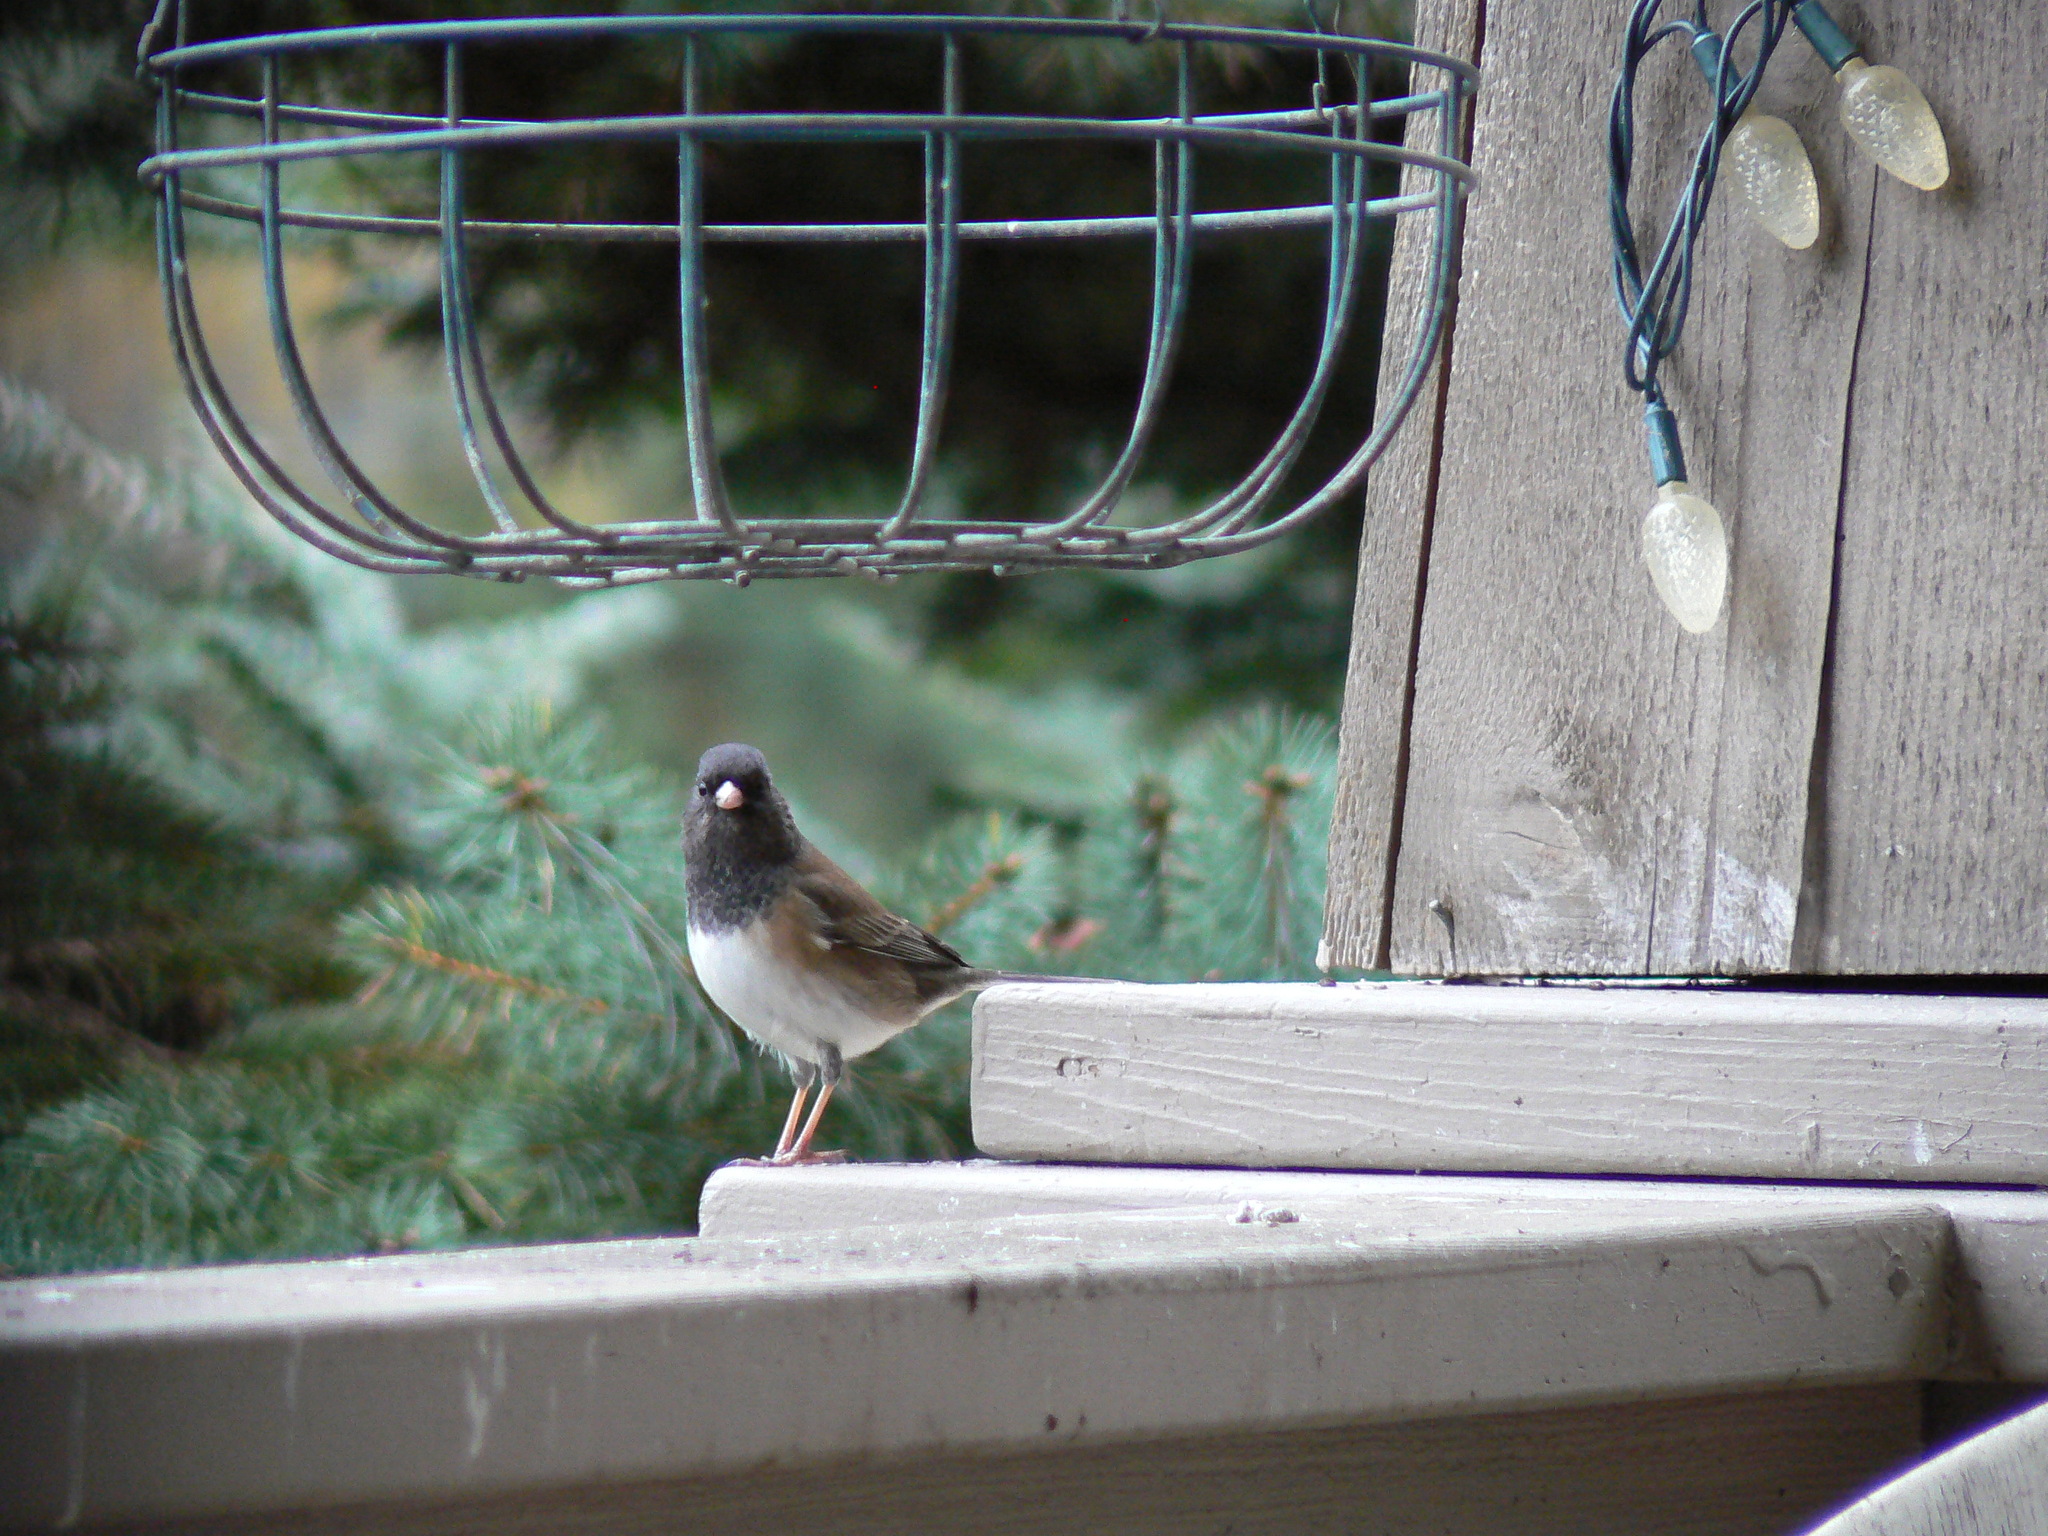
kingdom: Animalia
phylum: Chordata
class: Aves
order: Passeriformes
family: Passerellidae
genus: Junco
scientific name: Junco hyemalis
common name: Dark-eyed junco
